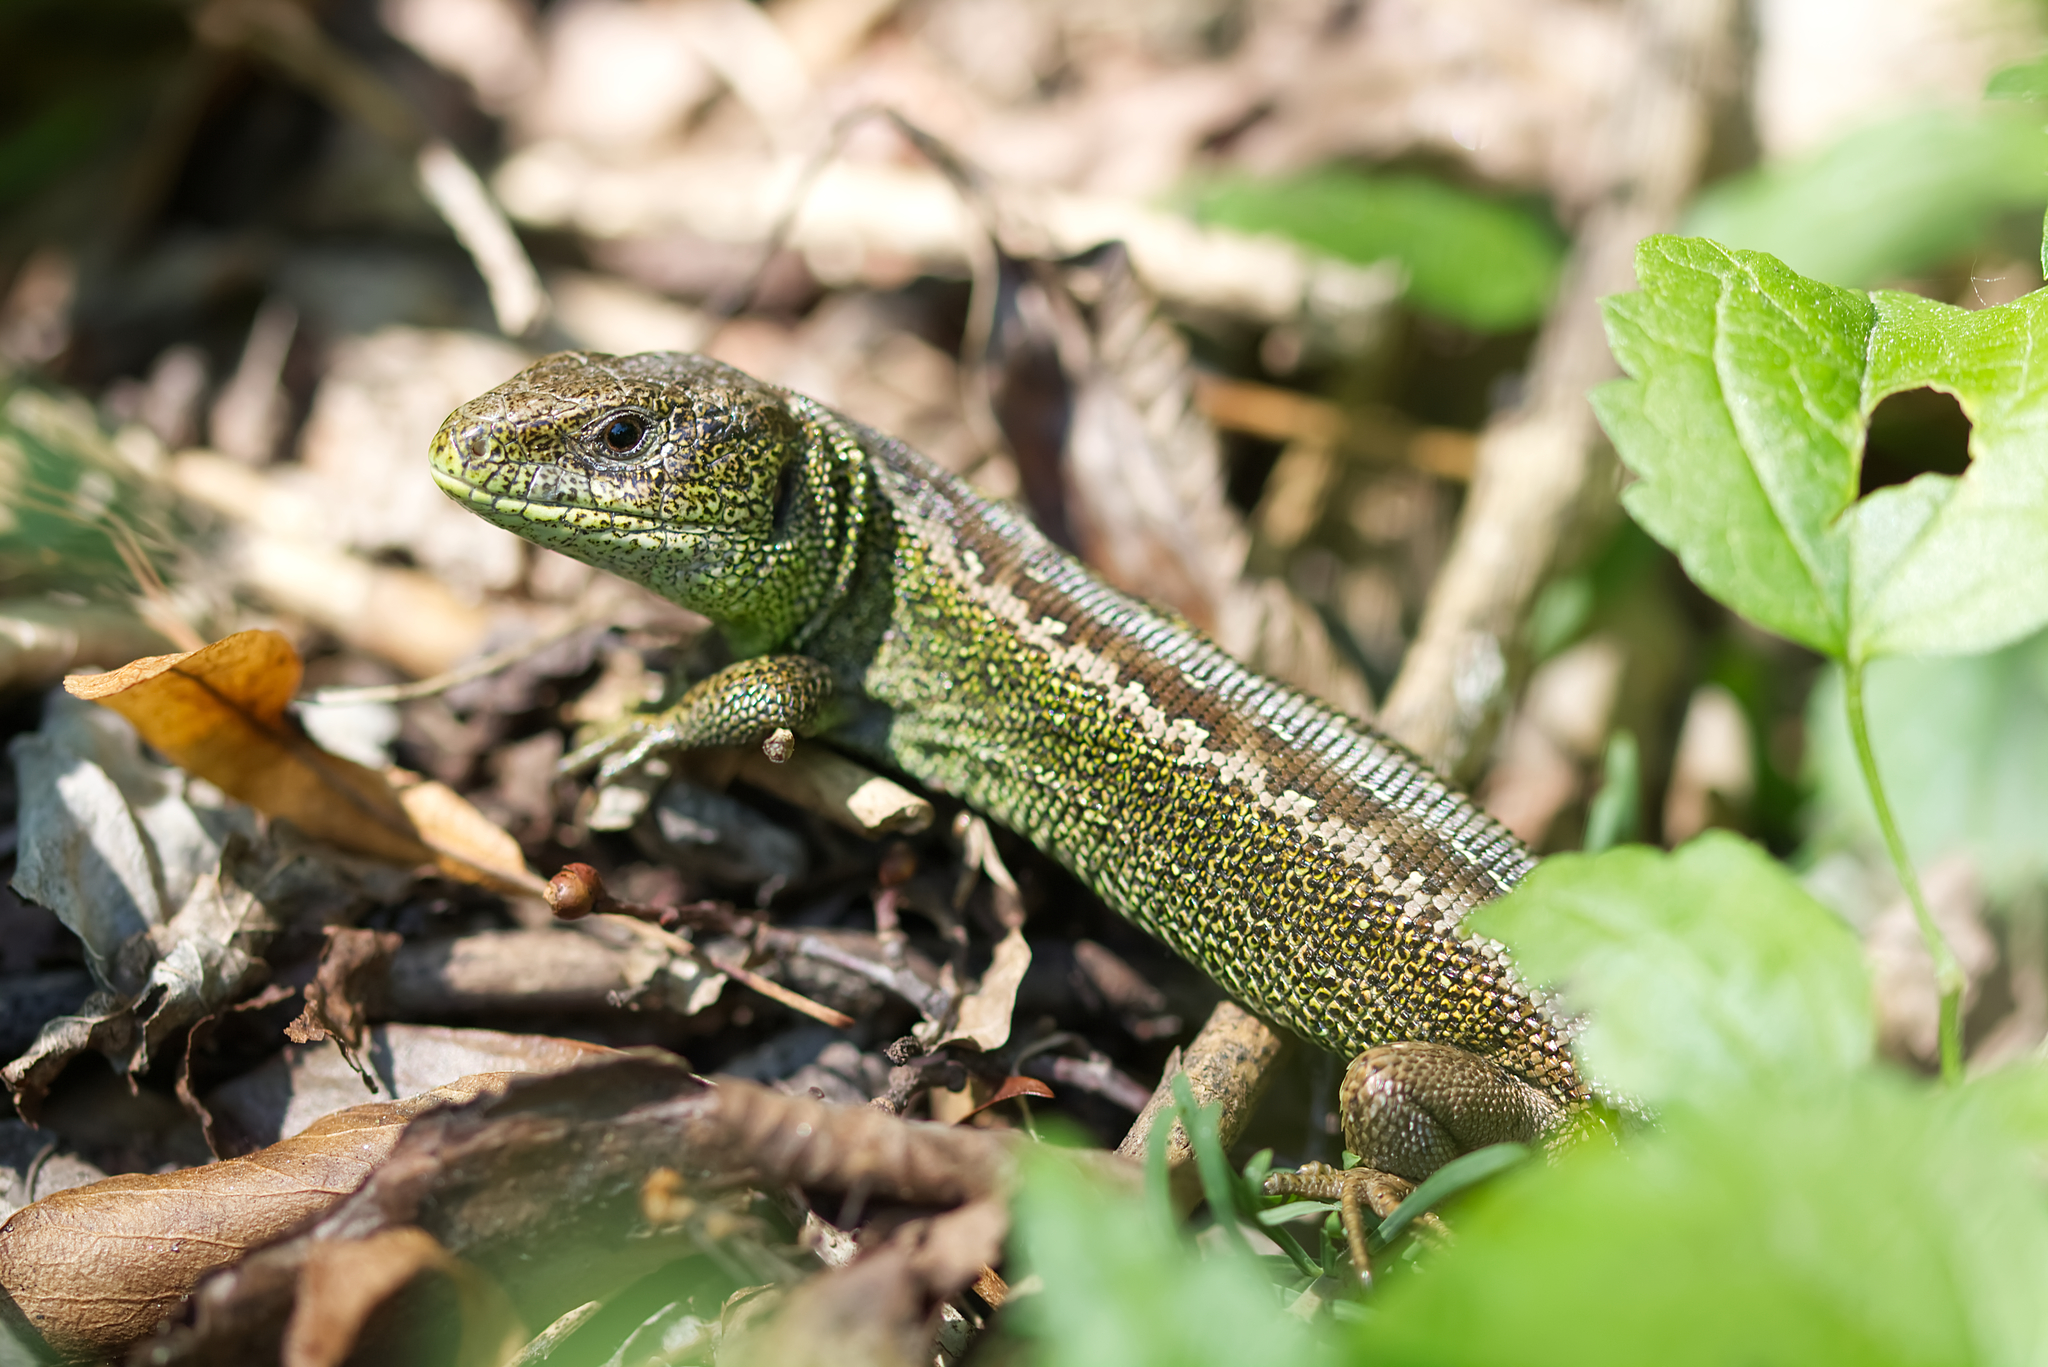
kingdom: Animalia
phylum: Chordata
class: Squamata
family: Lacertidae
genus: Lacerta
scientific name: Lacerta agilis
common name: Sand lizard
